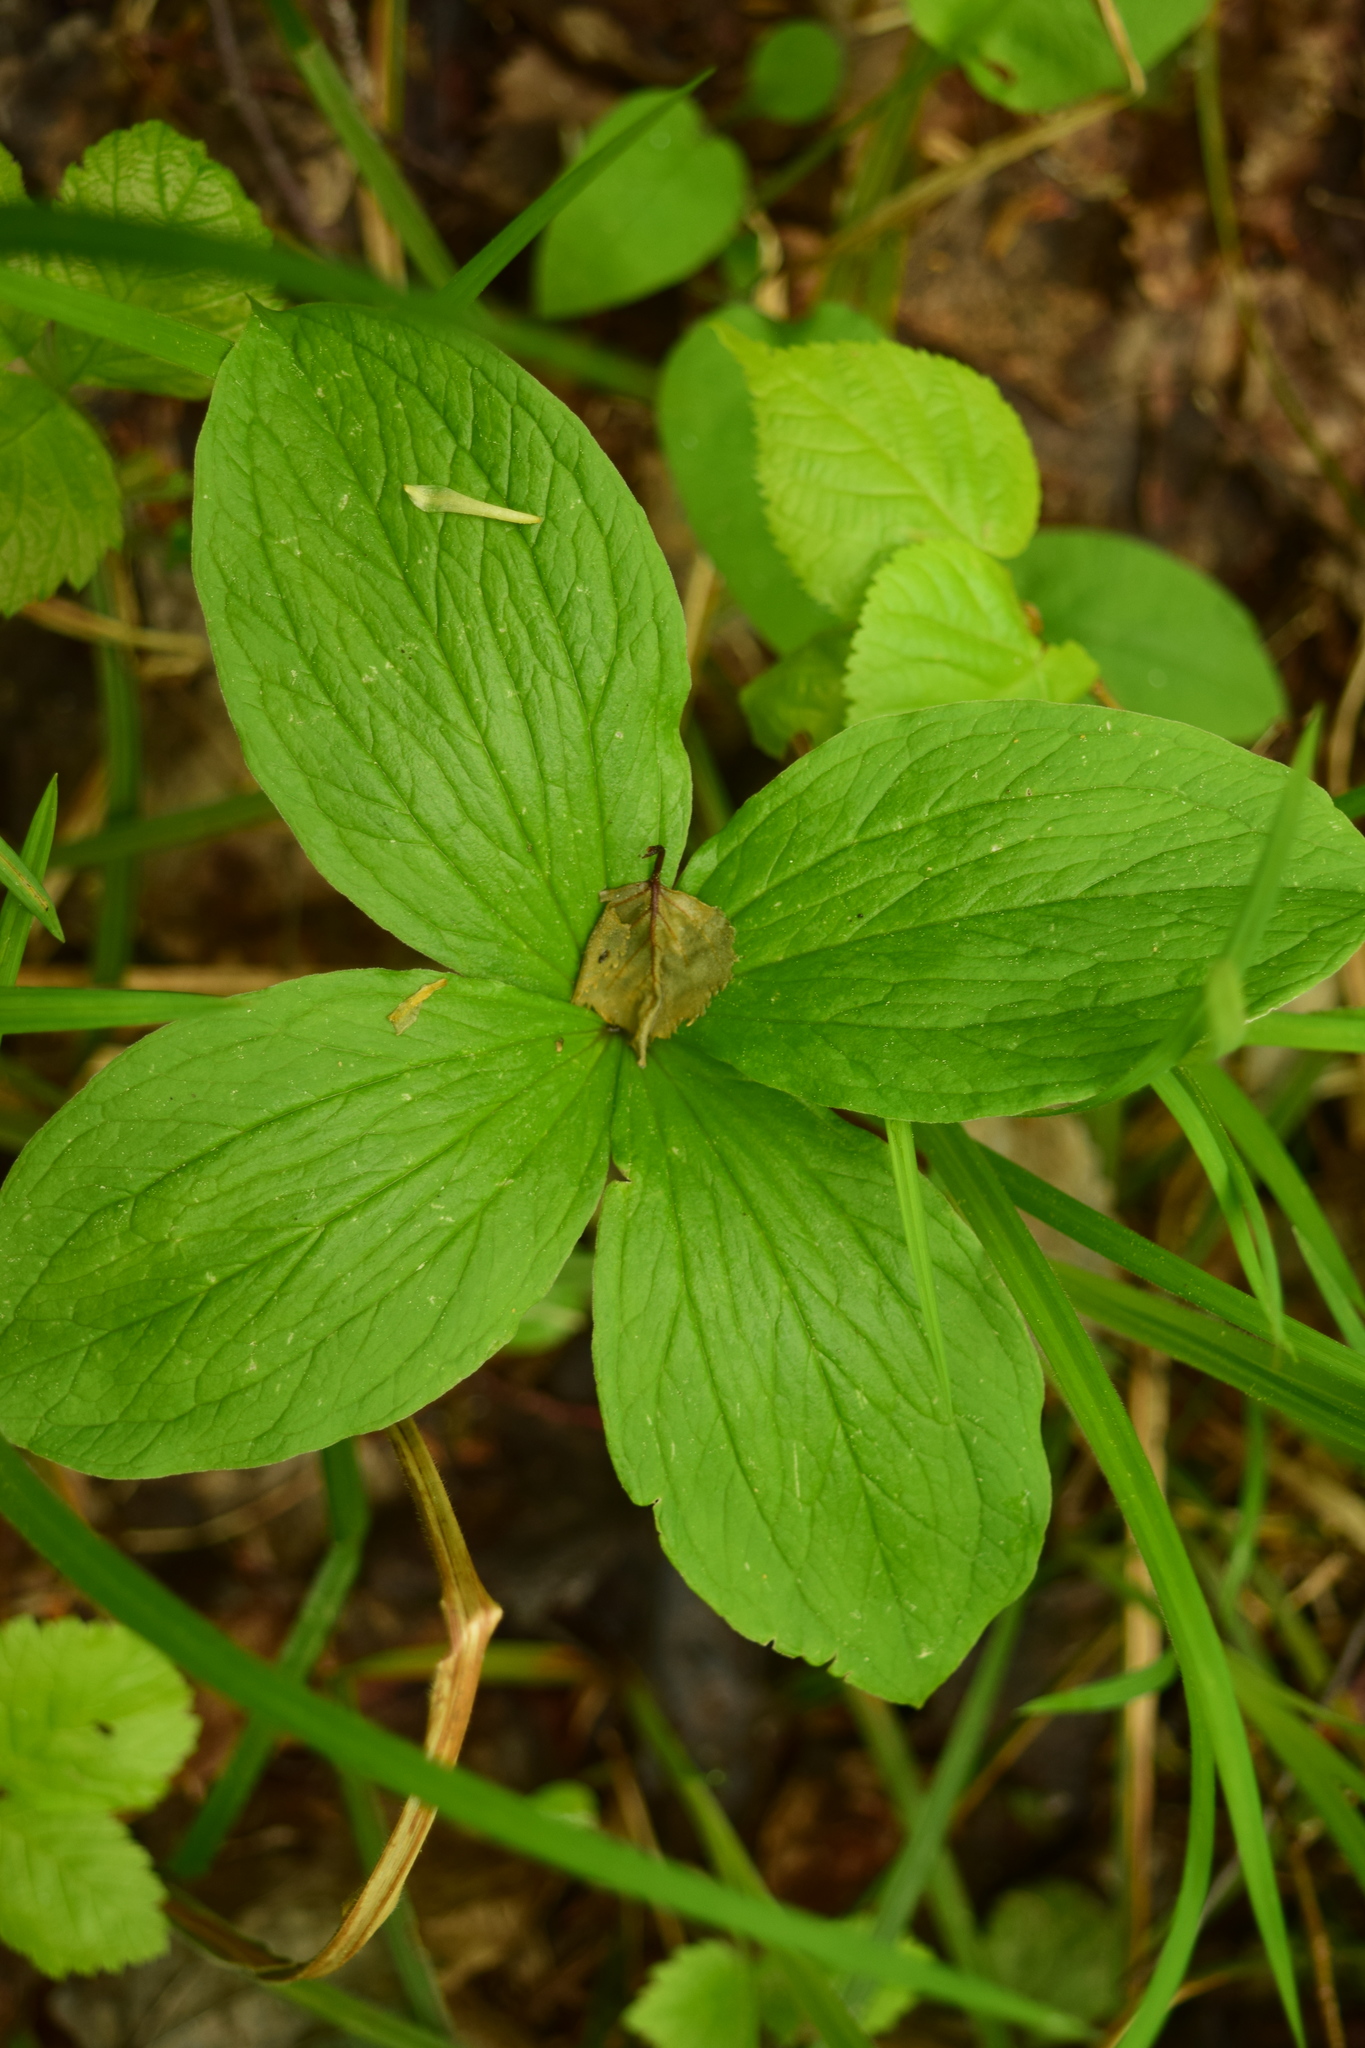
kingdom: Plantae
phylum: Tracheophyta
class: Liliopsida
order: Liliales
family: Melanthiaceae
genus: Paris
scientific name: Paris quadrifolia
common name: Herb-paris
